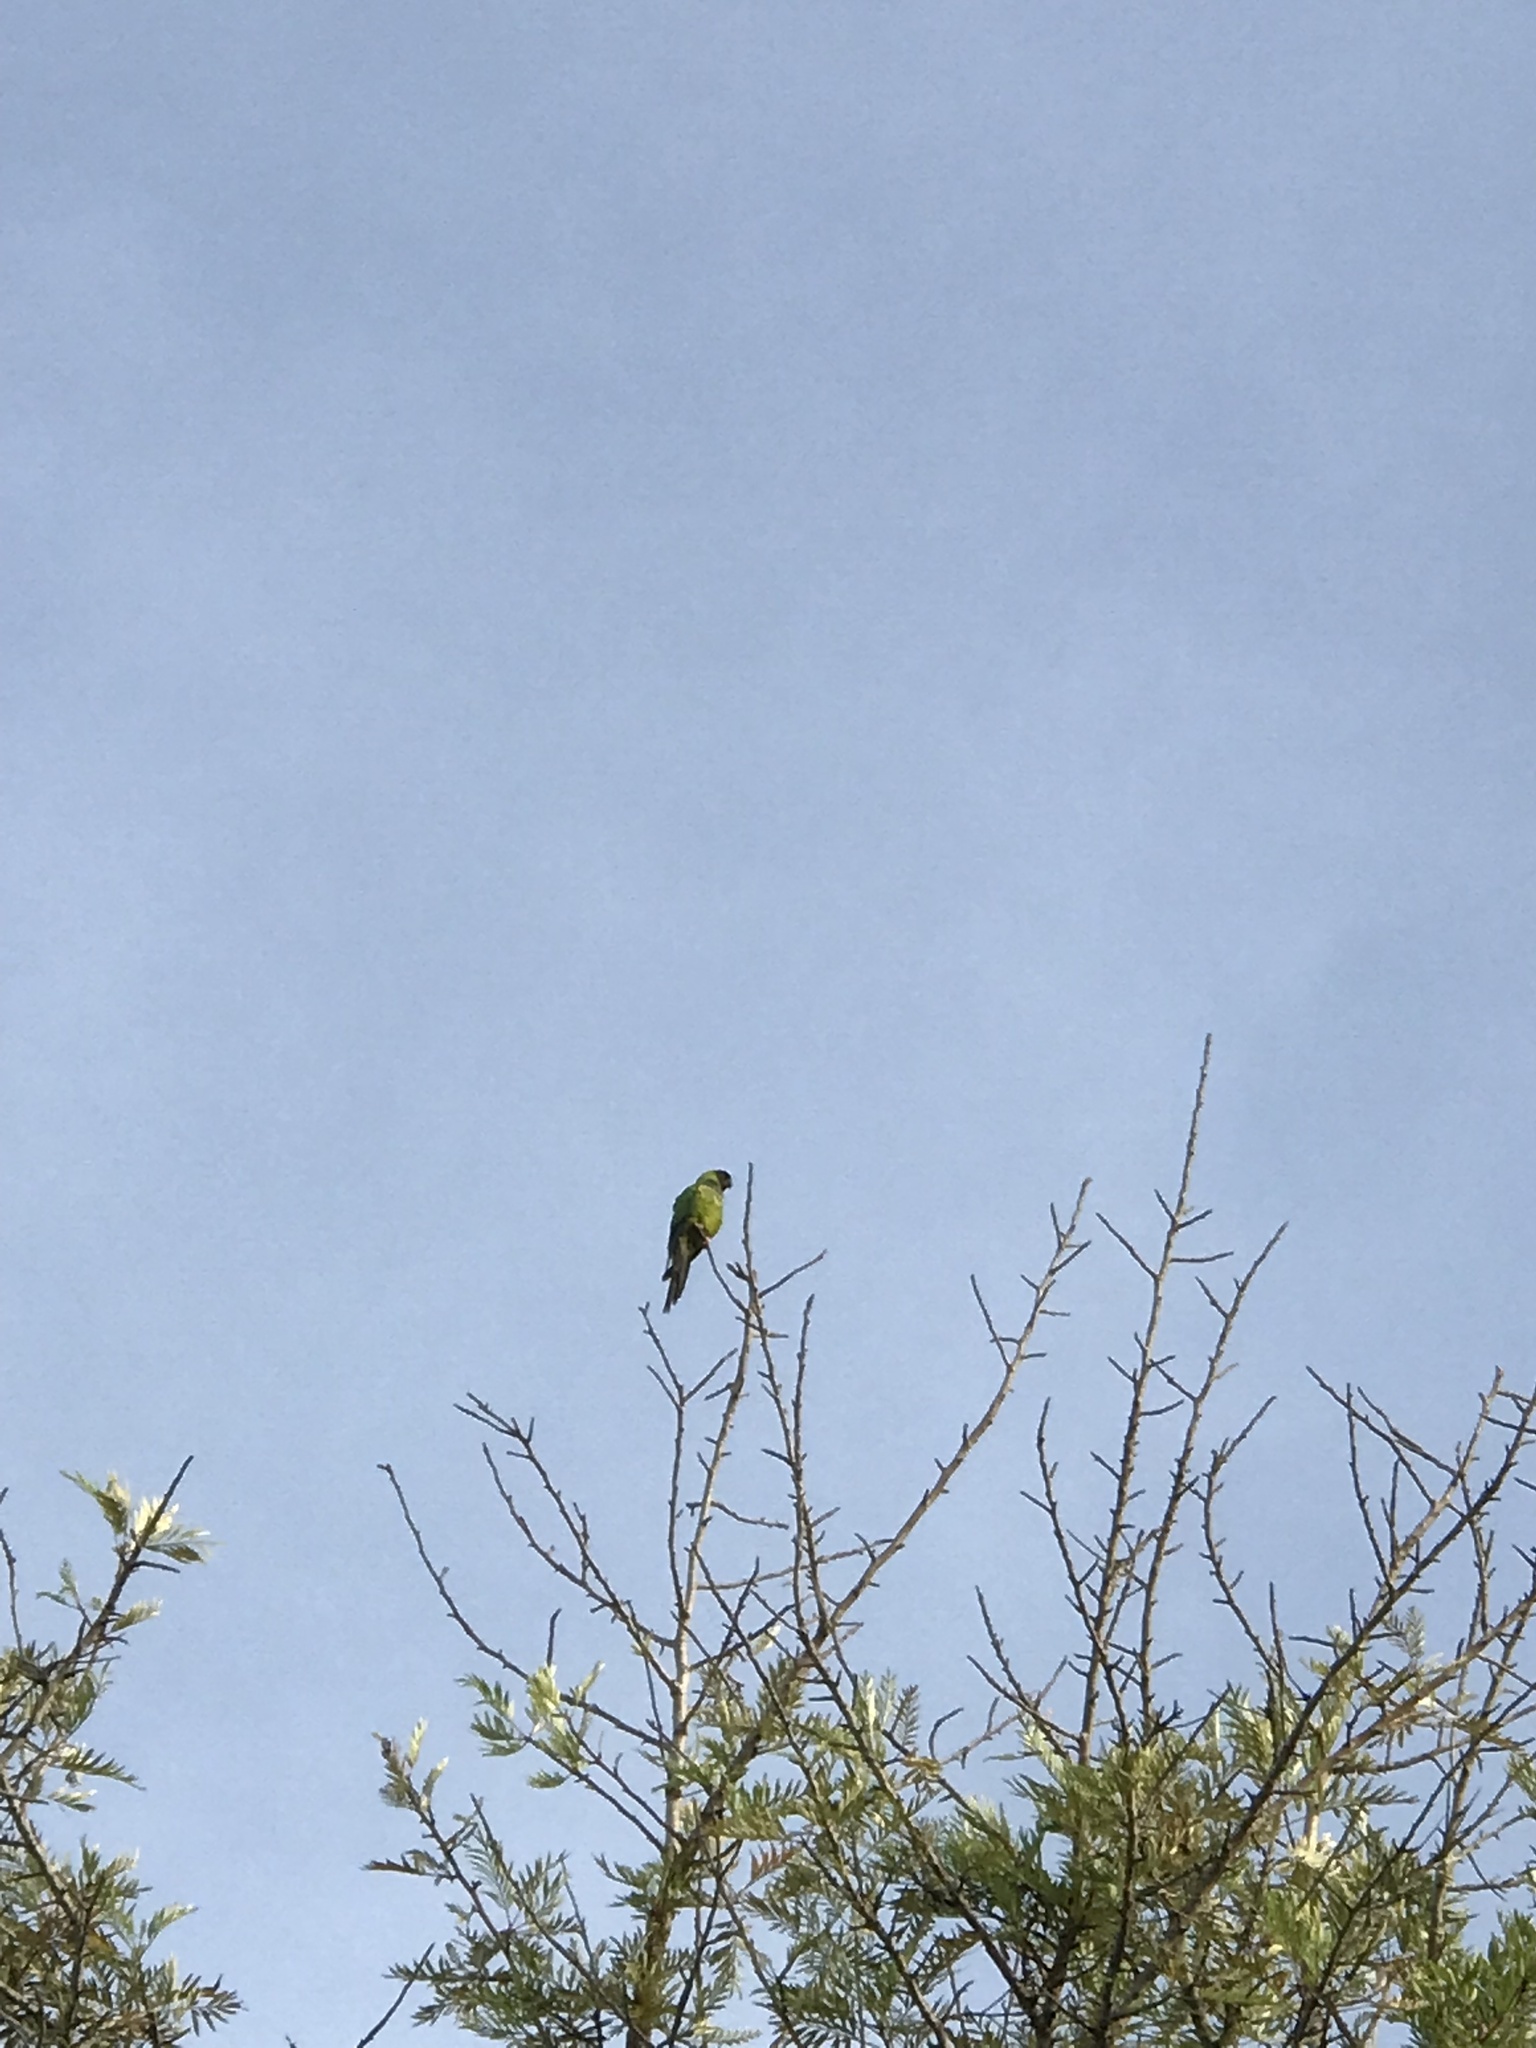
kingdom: Animalia
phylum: Chordata
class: Aves
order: Psittaciformes
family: Psittacidae
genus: Nandayus
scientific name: Nandayus nenday
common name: Nanday parakeet
